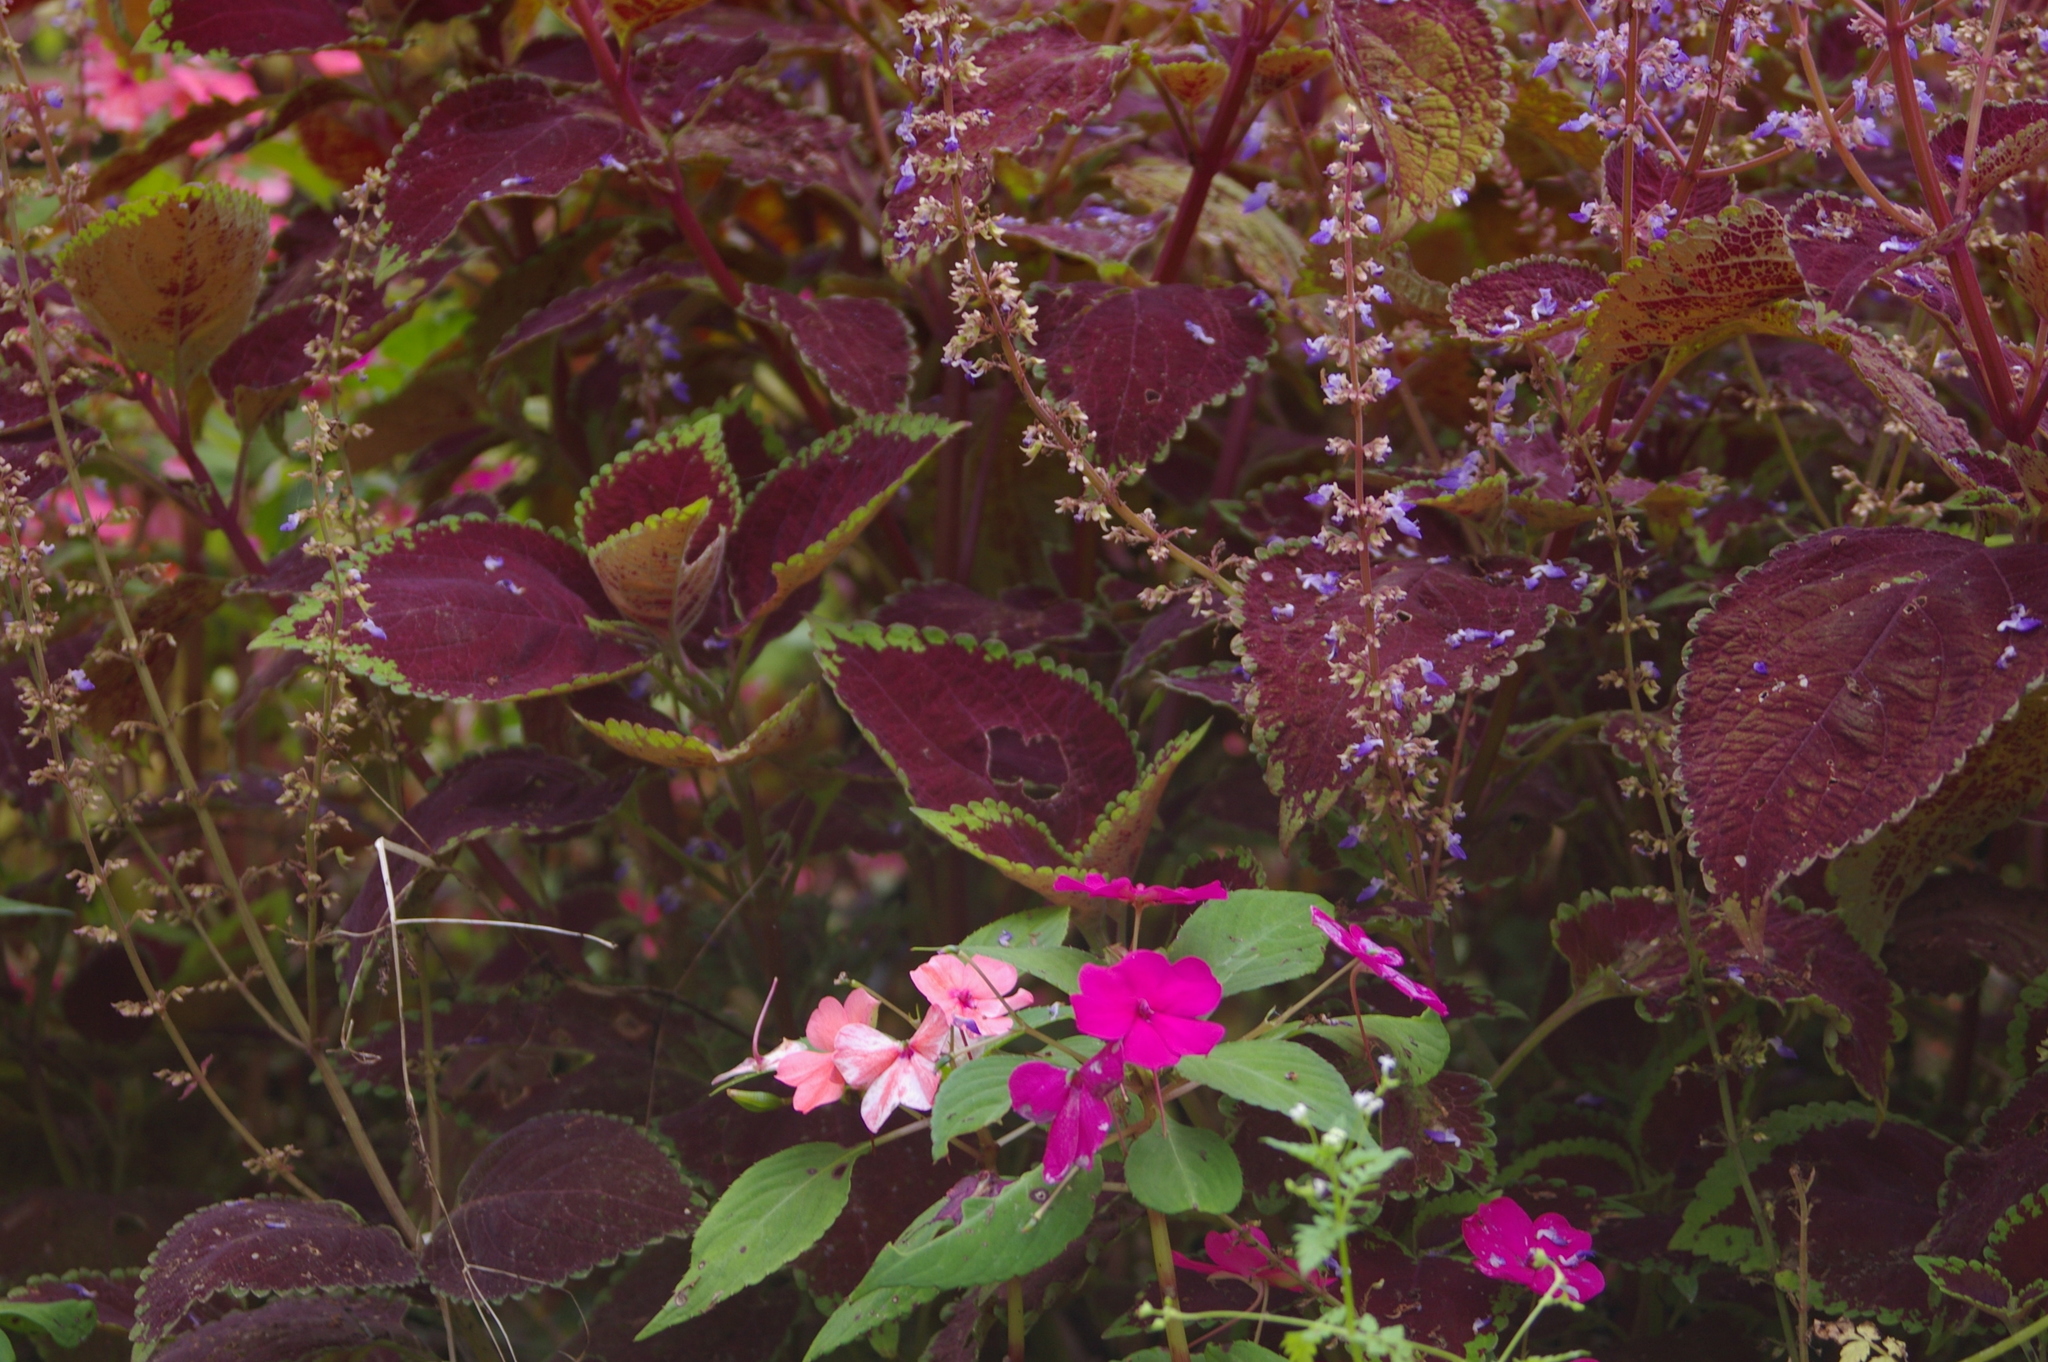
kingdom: Plantae
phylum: Tracheophyta
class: Magnoliopsida
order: Lamiales
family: Lamiaceae
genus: Coleus
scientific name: Coleus scutellarioides
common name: Coleus
